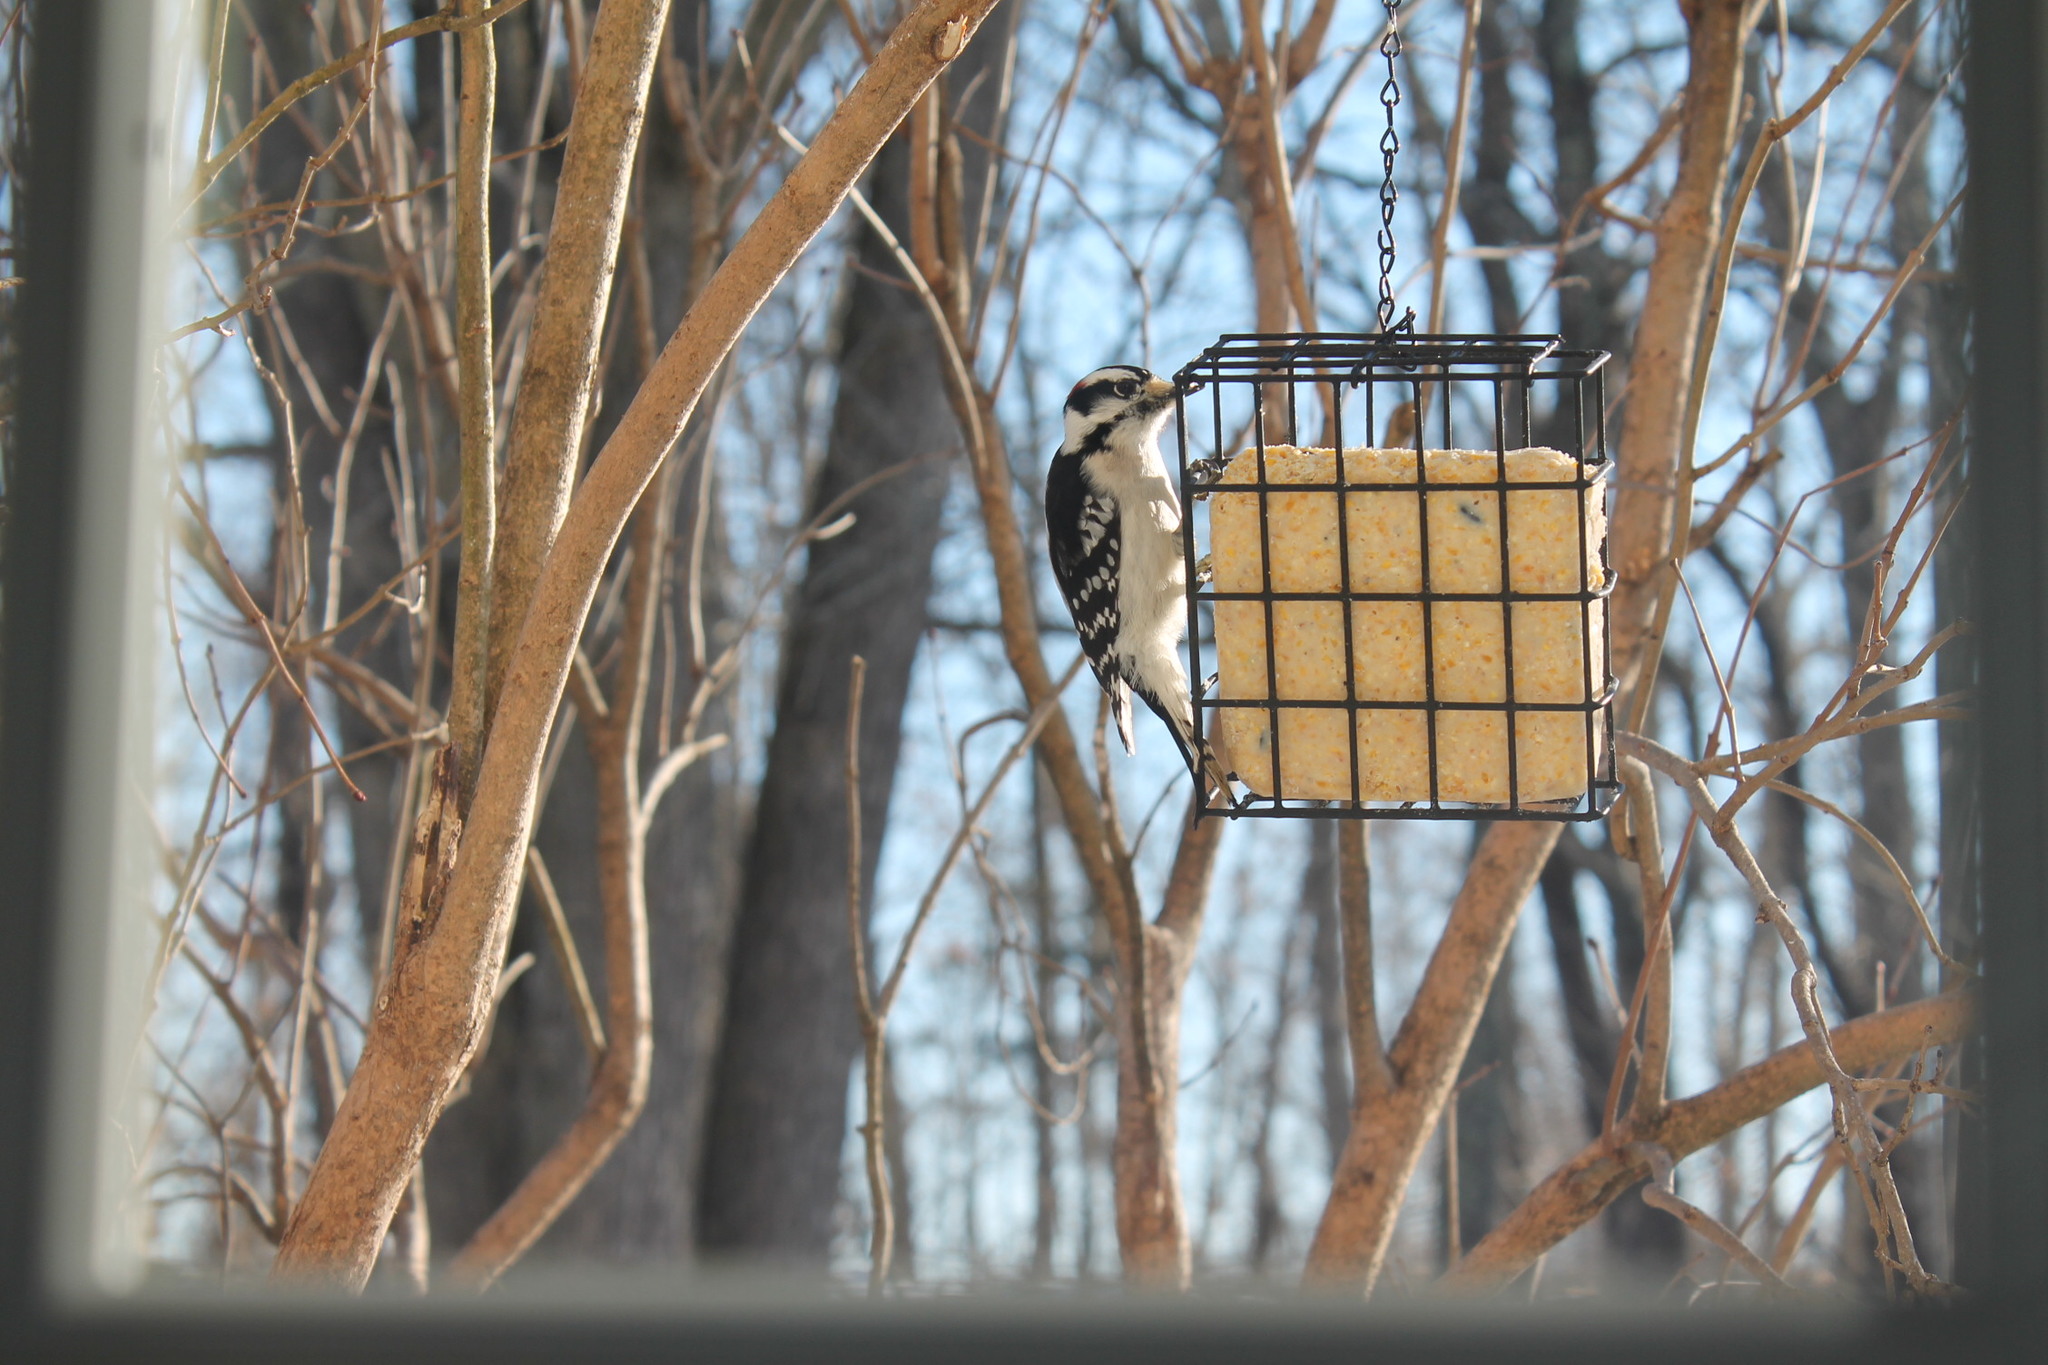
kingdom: Animalia
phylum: Chordata
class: Aves
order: Piciformes
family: Picidae
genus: Dryobates
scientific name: Dryobates pubescens
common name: Downy woodpecker
